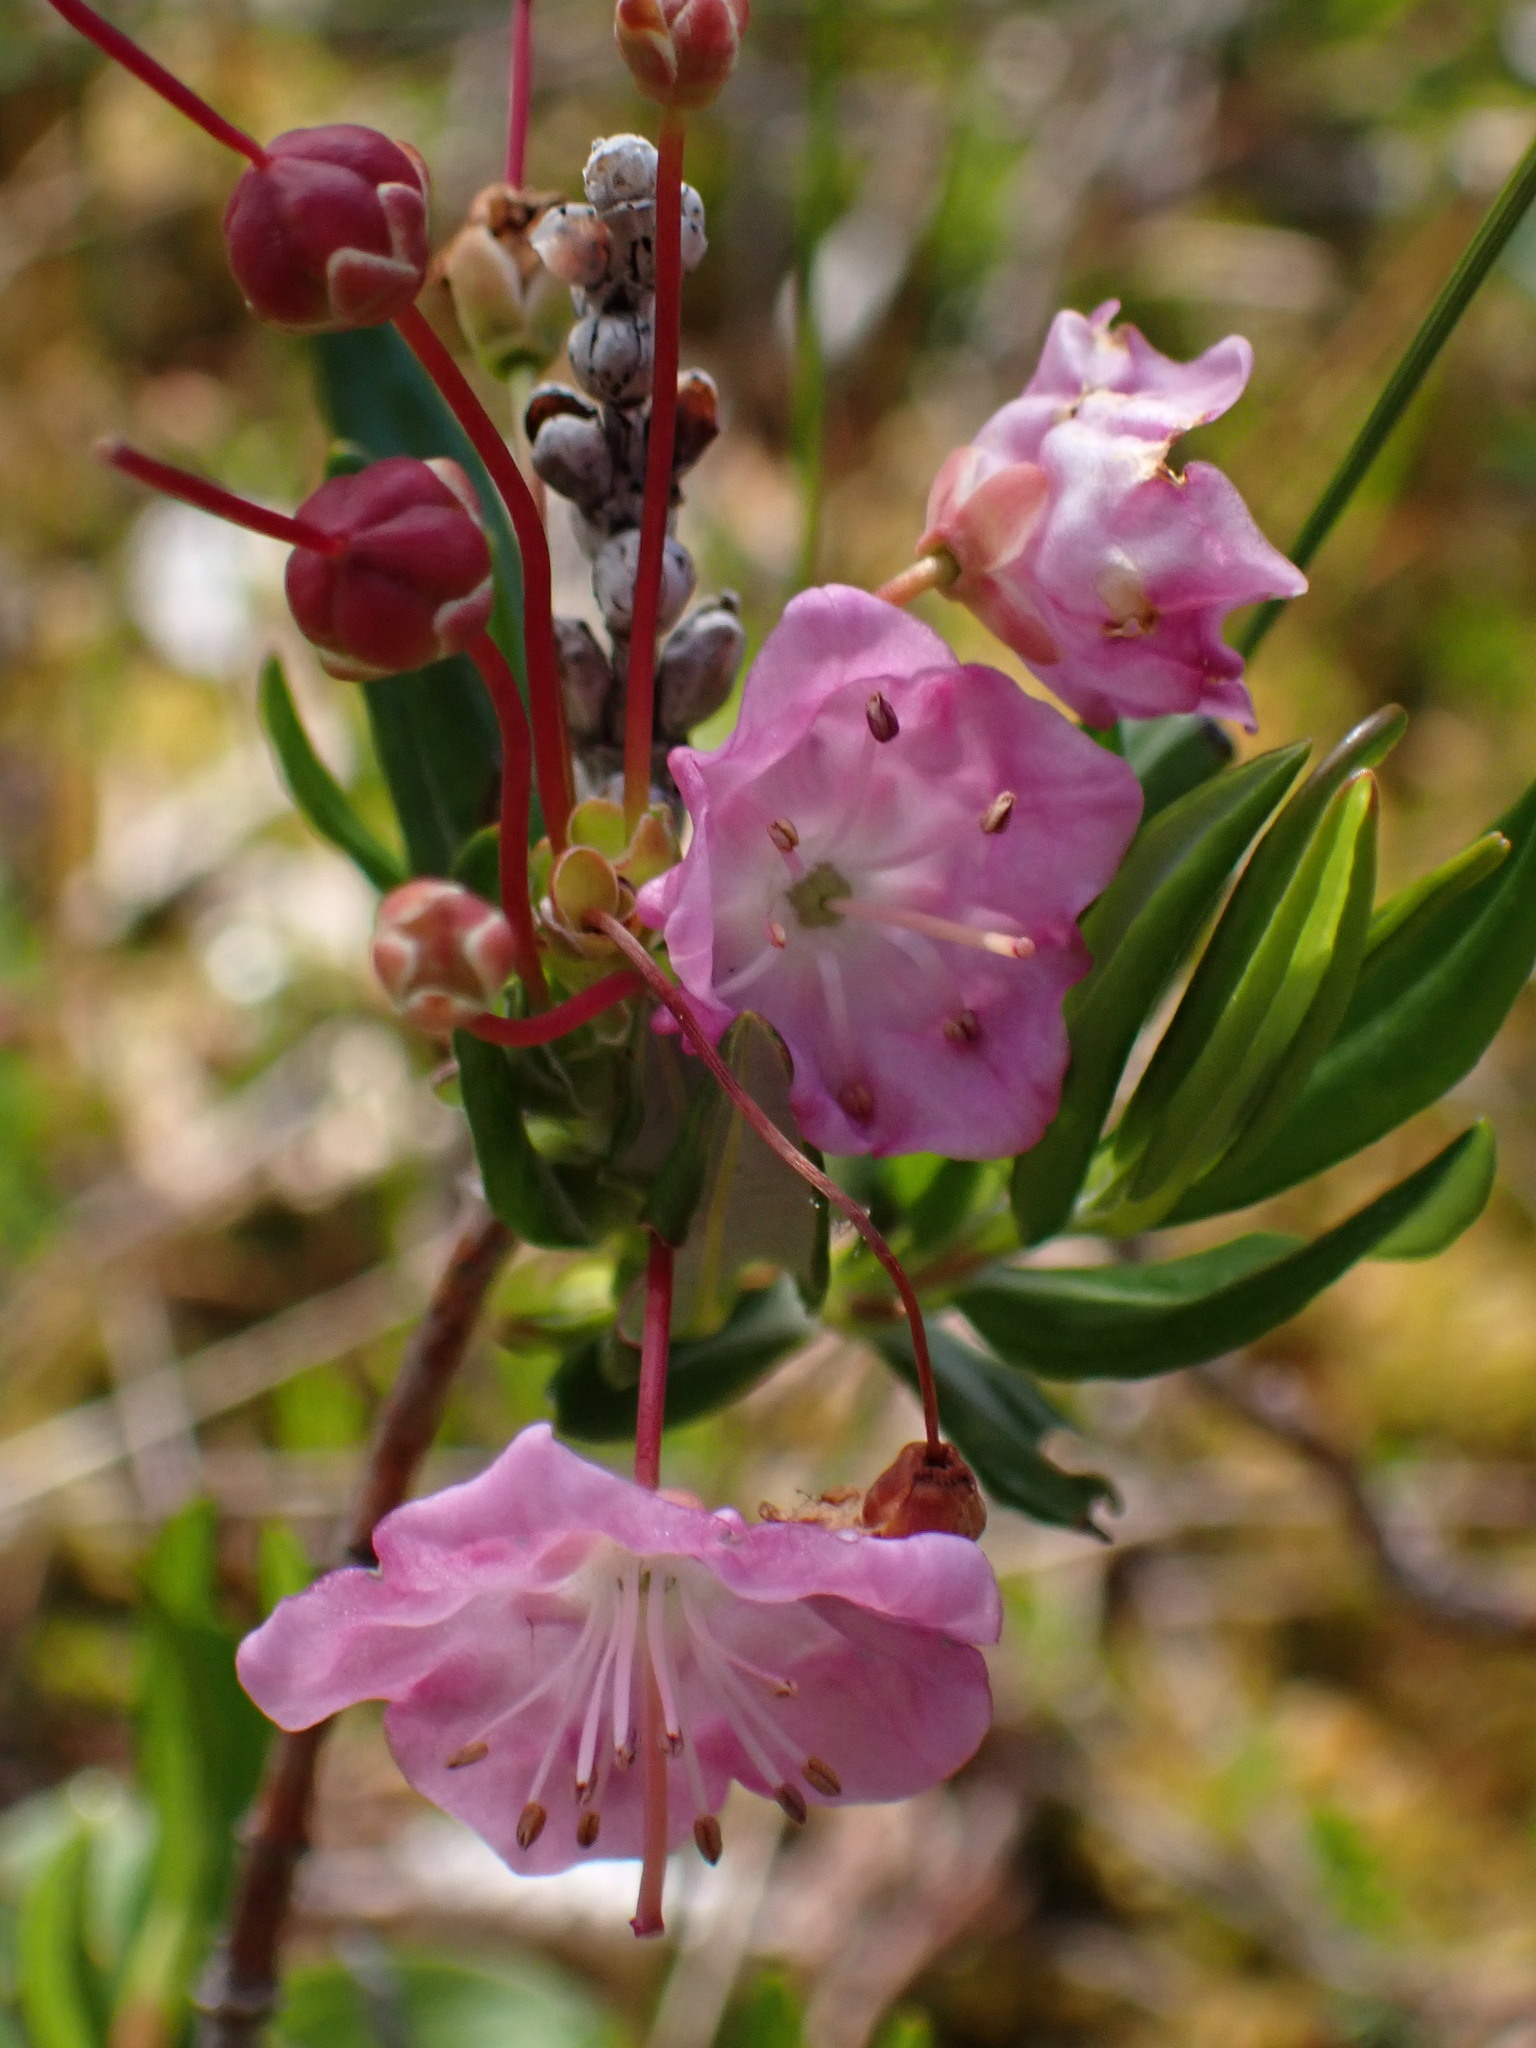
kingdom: Plantae
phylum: Tracheophyta
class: Magnoliopsida
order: Ericales
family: Ericaceae
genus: Kalmia
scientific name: Kalmia microphylla
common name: Alpine bog laurel
